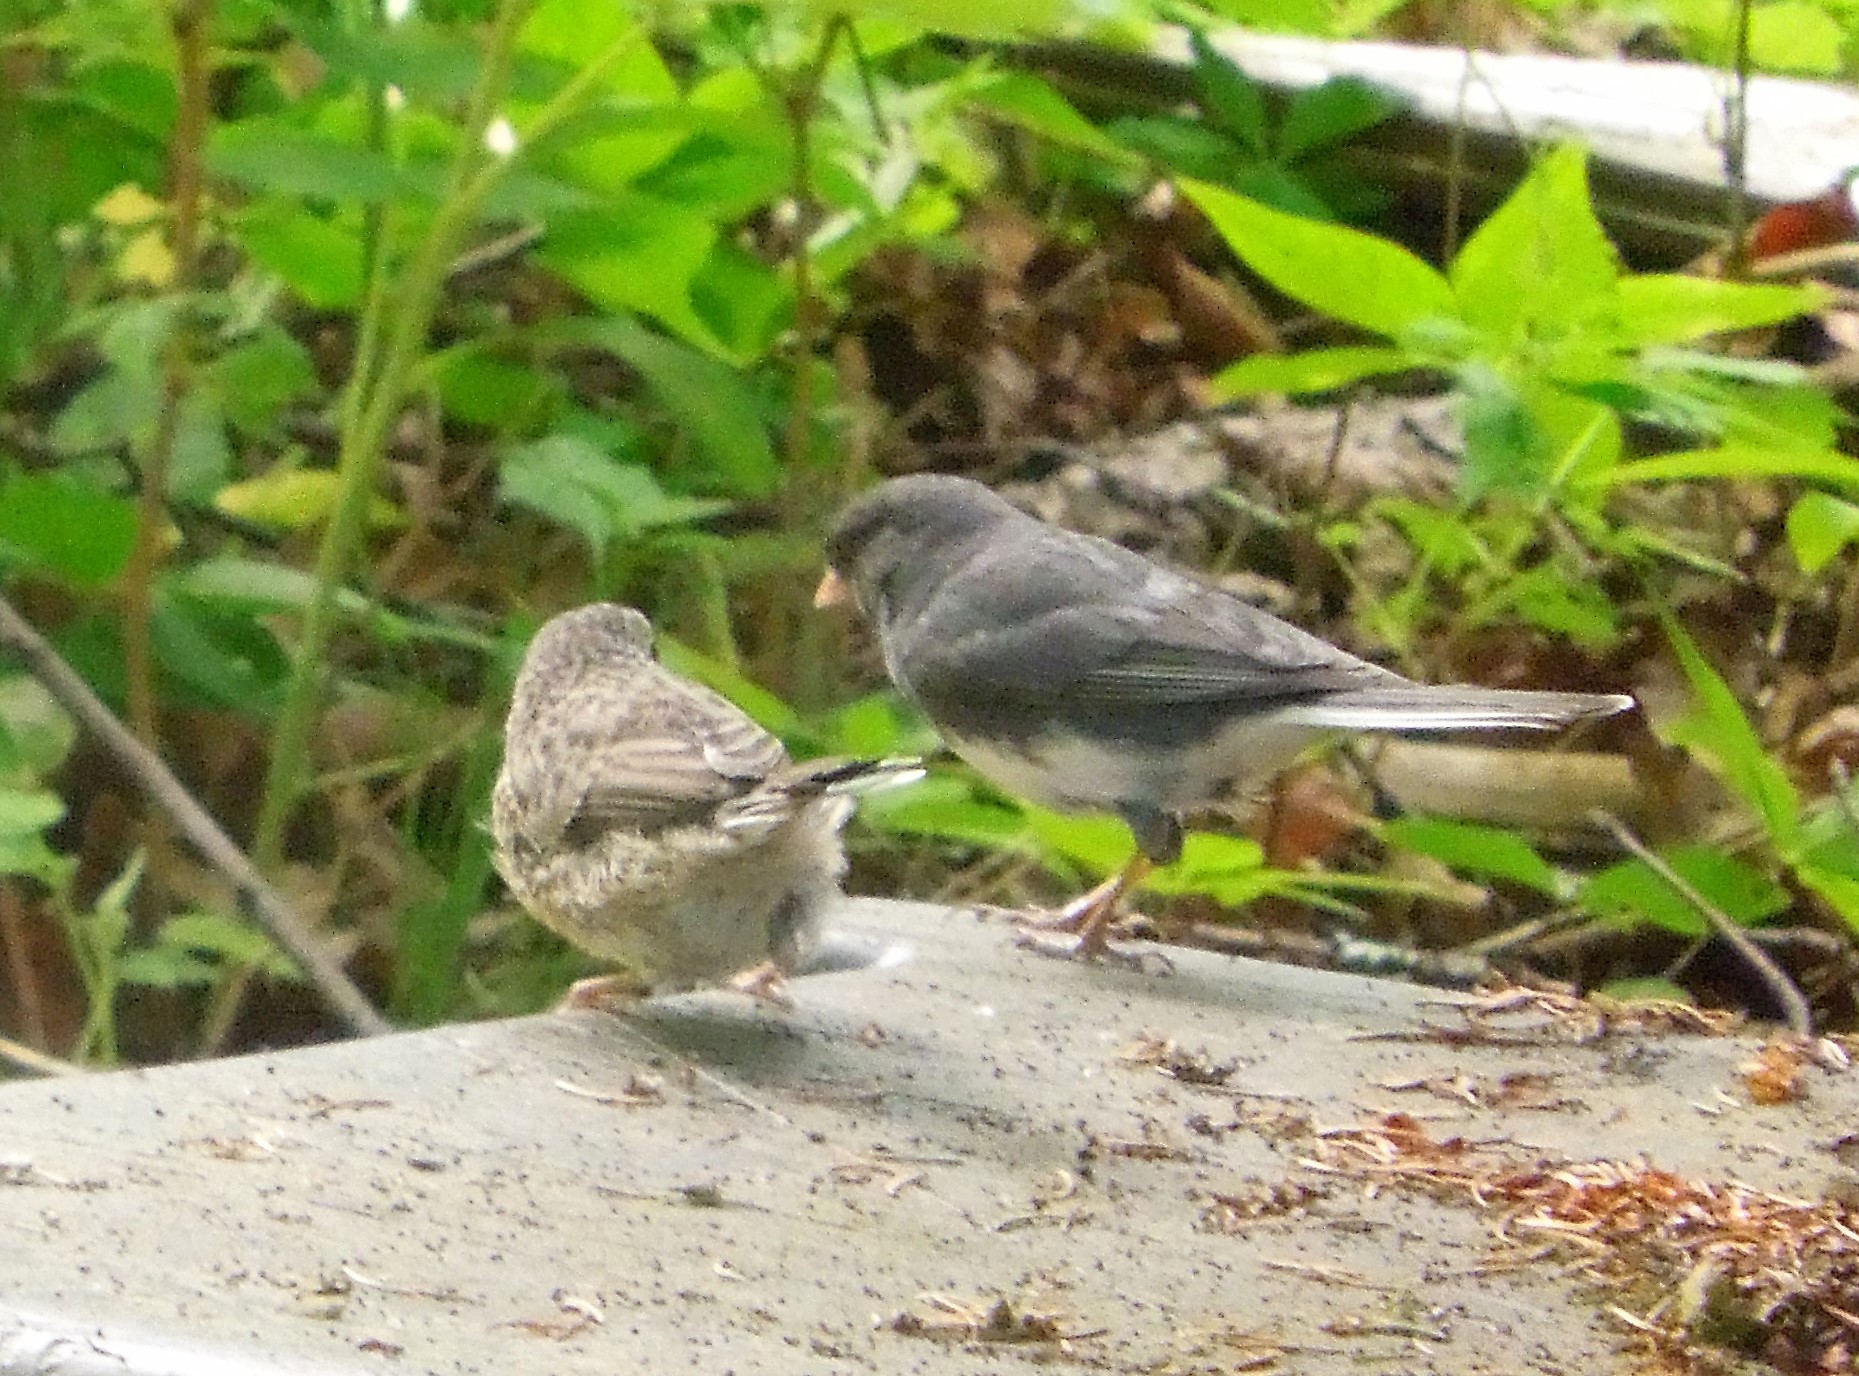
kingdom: Animalia
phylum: Chordata
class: Aves
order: Passeriformes
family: Passerellidae
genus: Junco
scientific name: Junco hyemalis
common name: Dark-eyed junco
